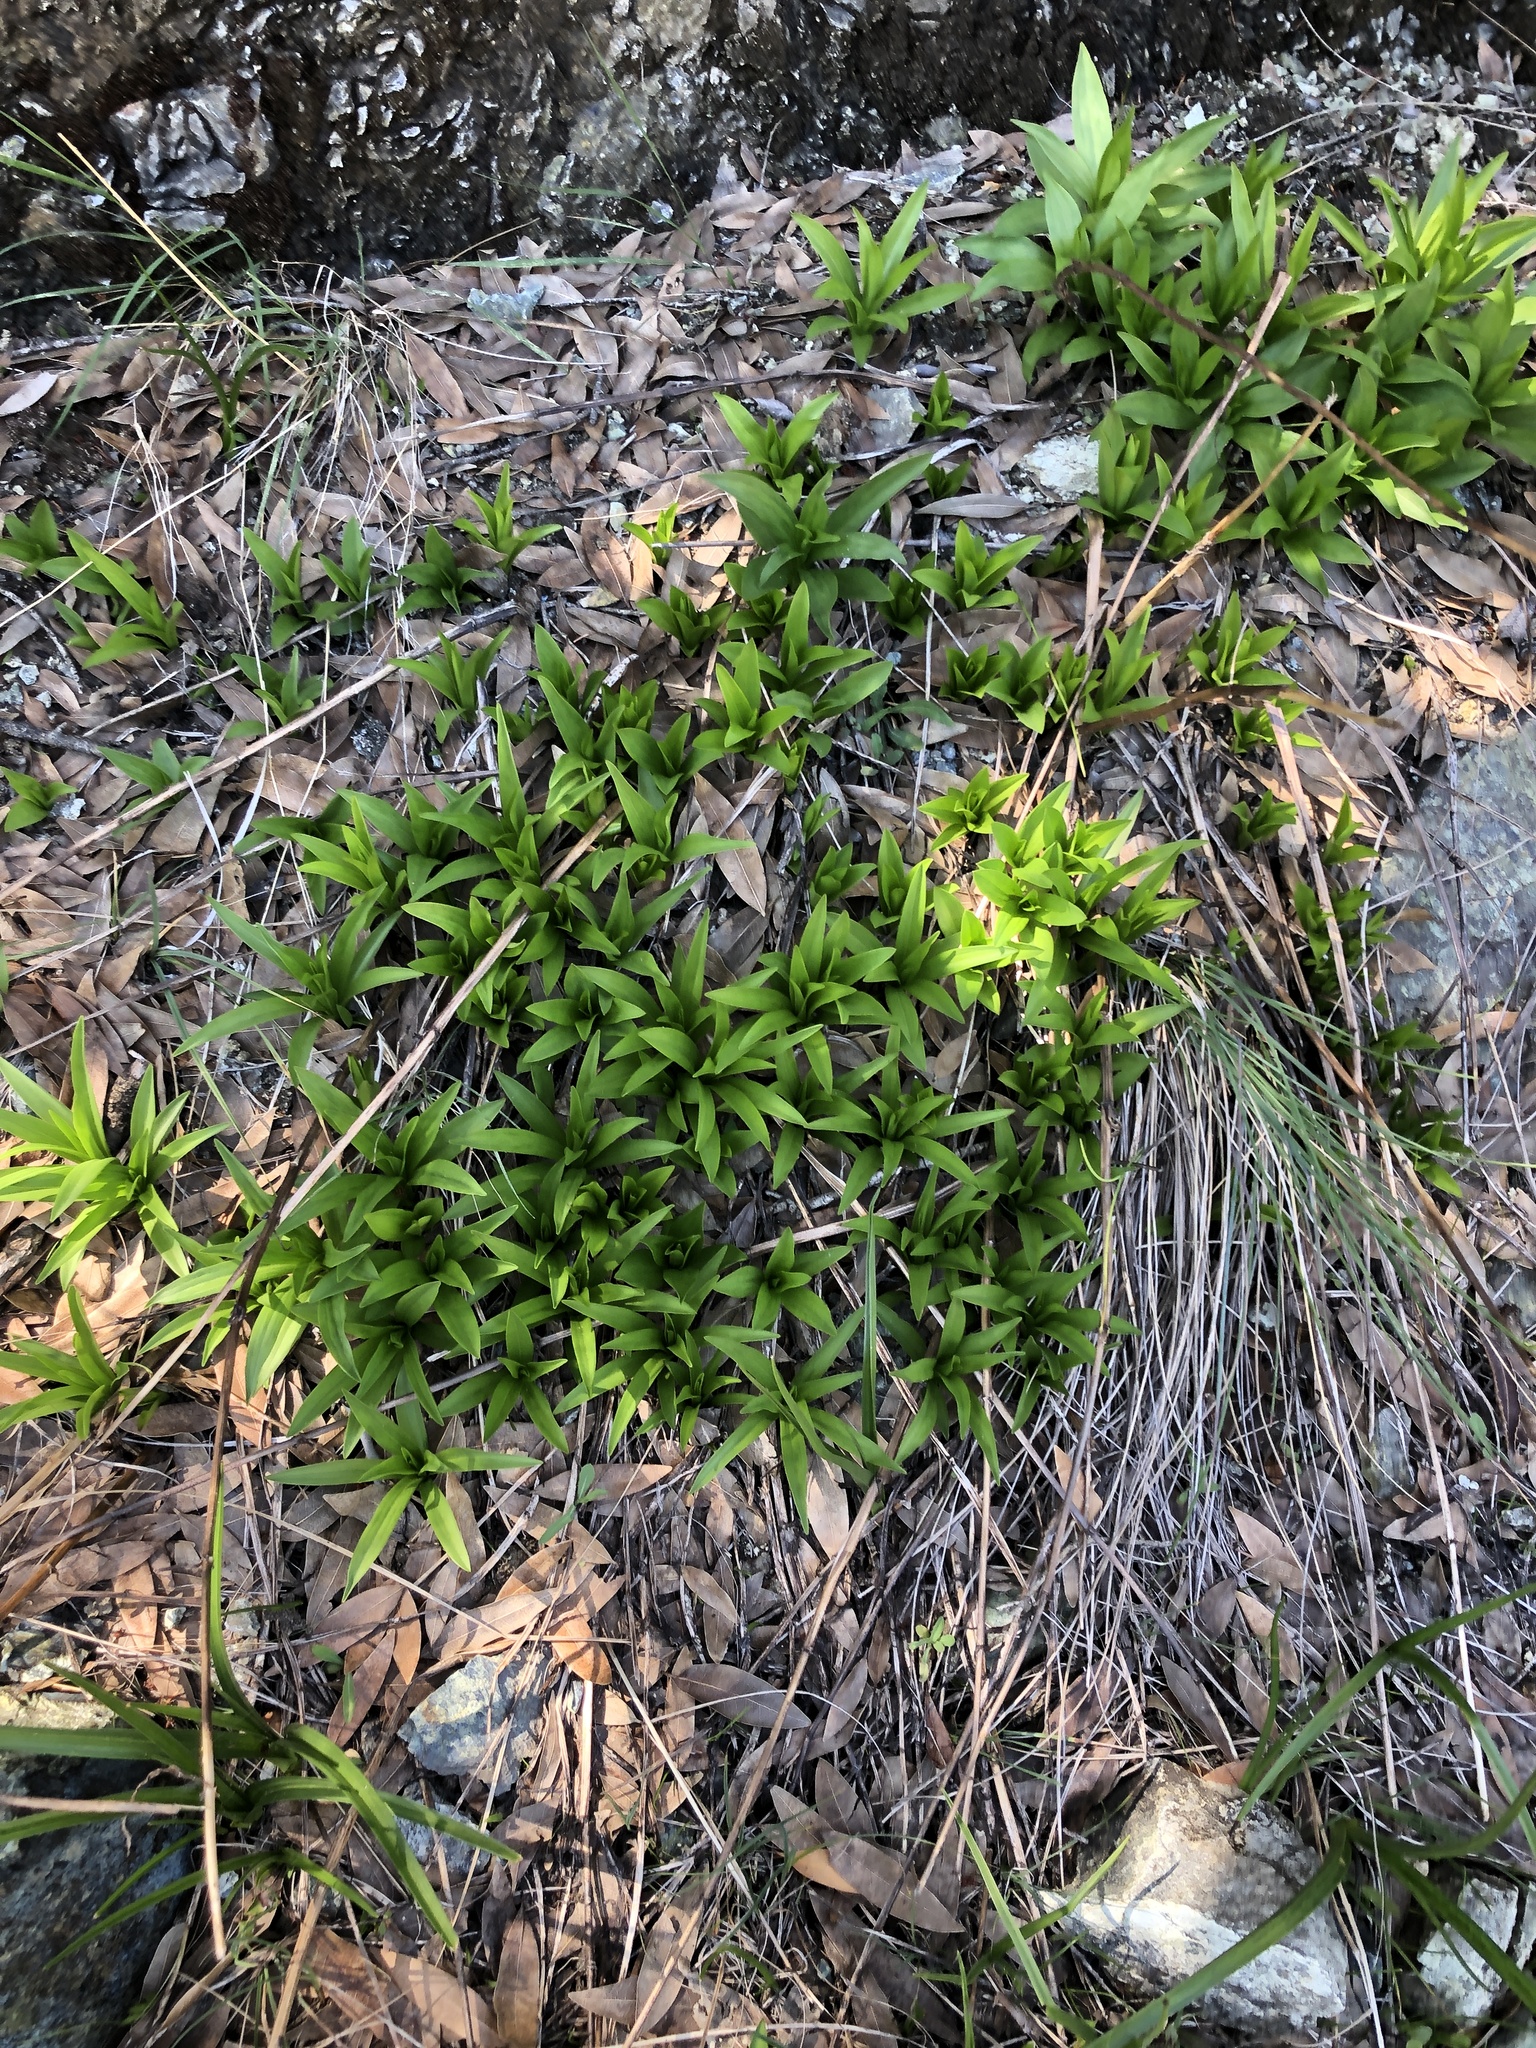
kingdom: Plantae
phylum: Tracheophyta
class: Liliopsida
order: Liliales
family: Liliaceae
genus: Lilium
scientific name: Lilium pardalinum
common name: Panther lily
